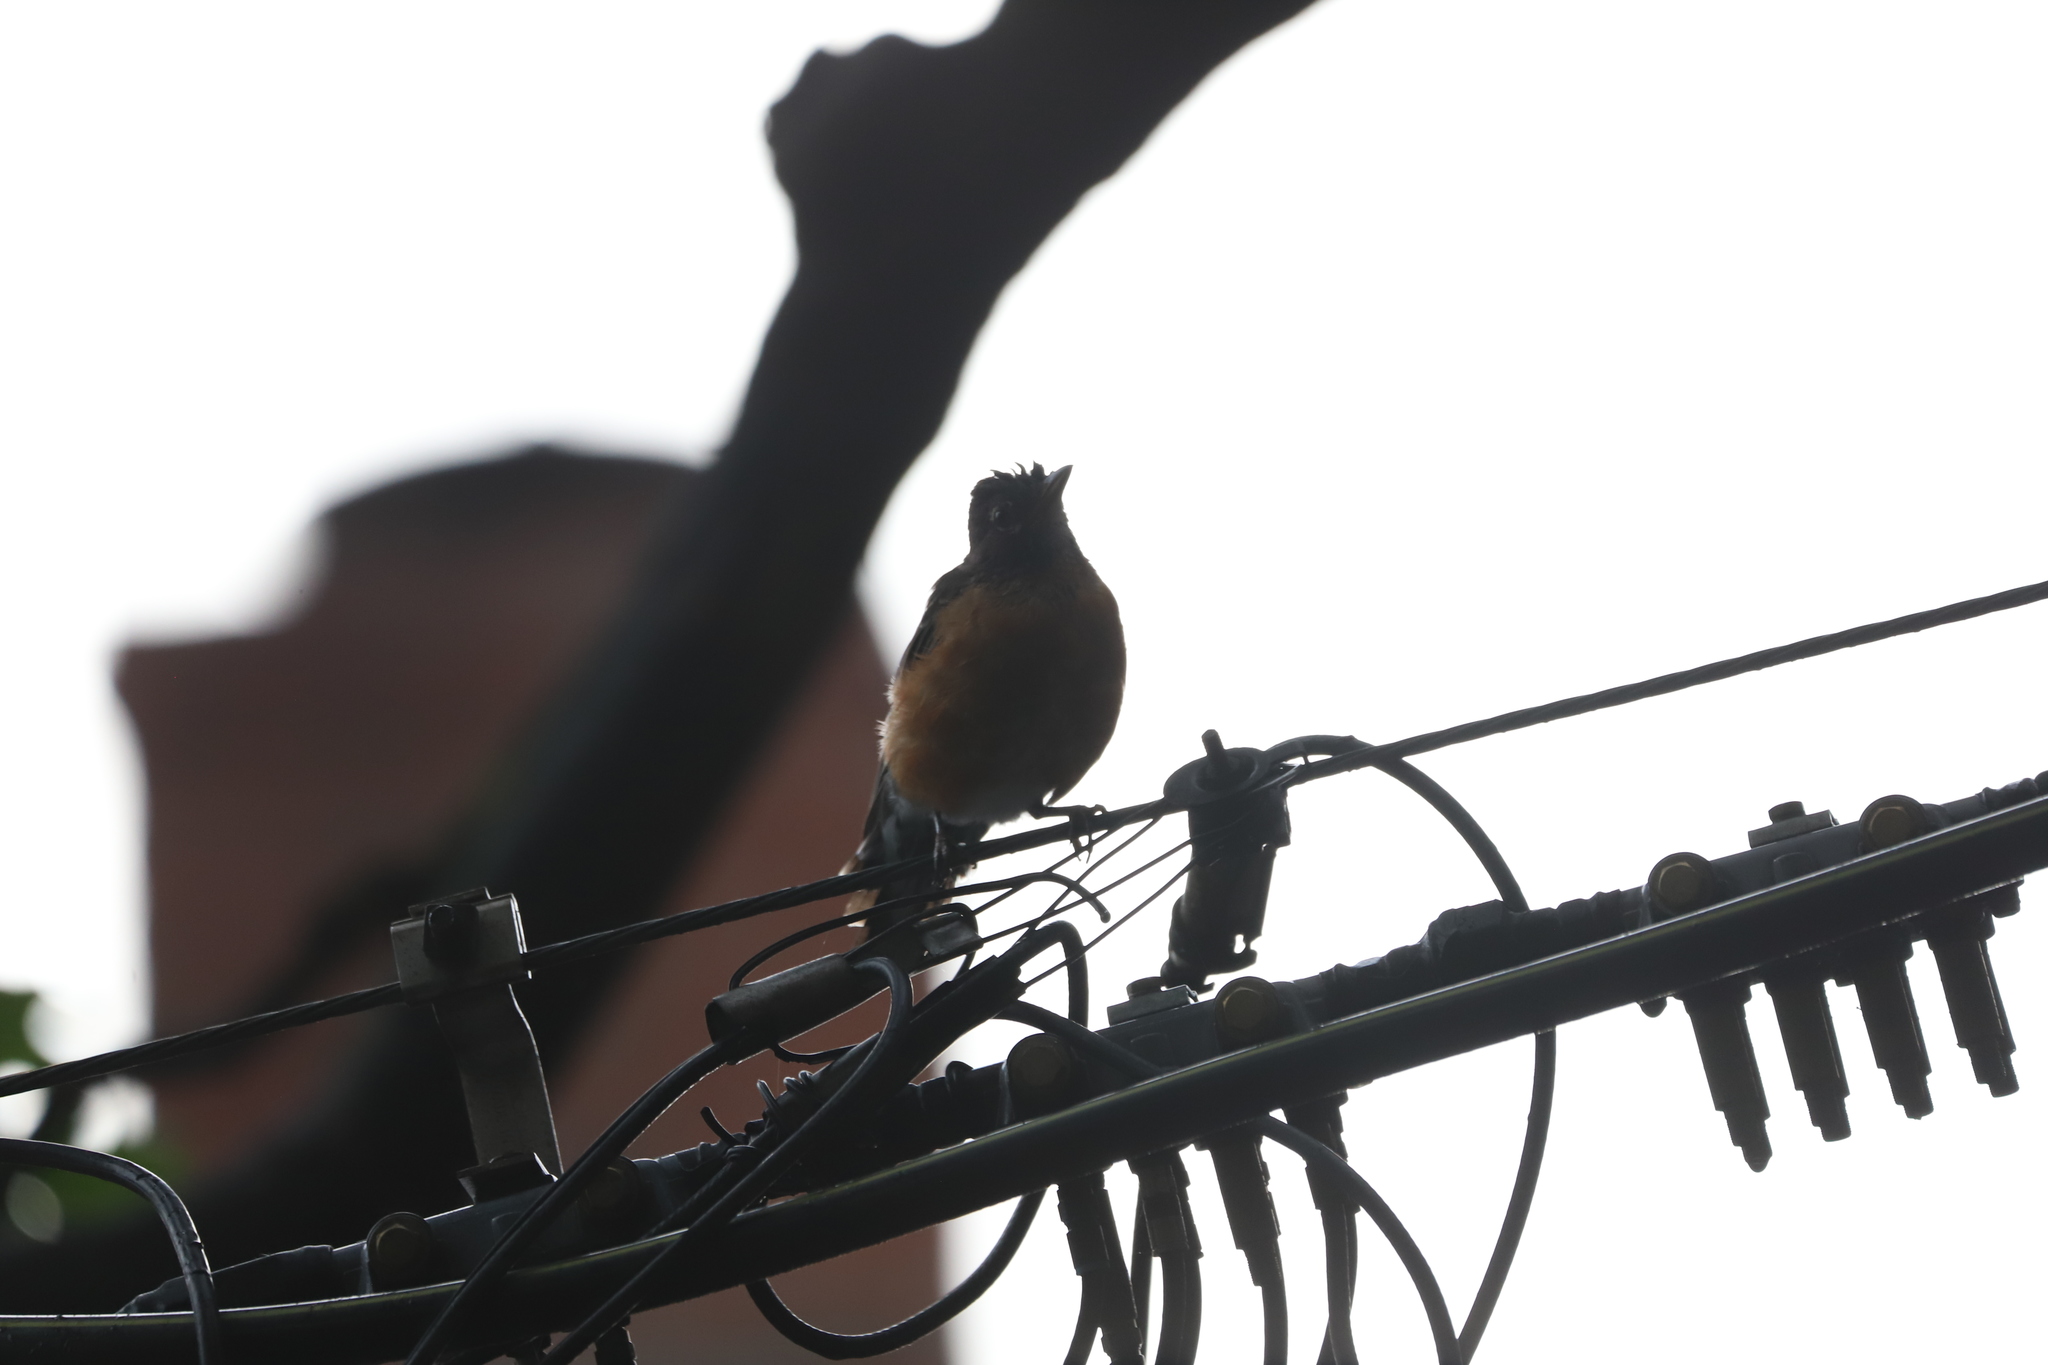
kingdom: Animalia
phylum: Chordata
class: Aves
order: Passeriformes
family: Turdidae
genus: Turdus
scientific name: Turdus migratorius
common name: American robin
